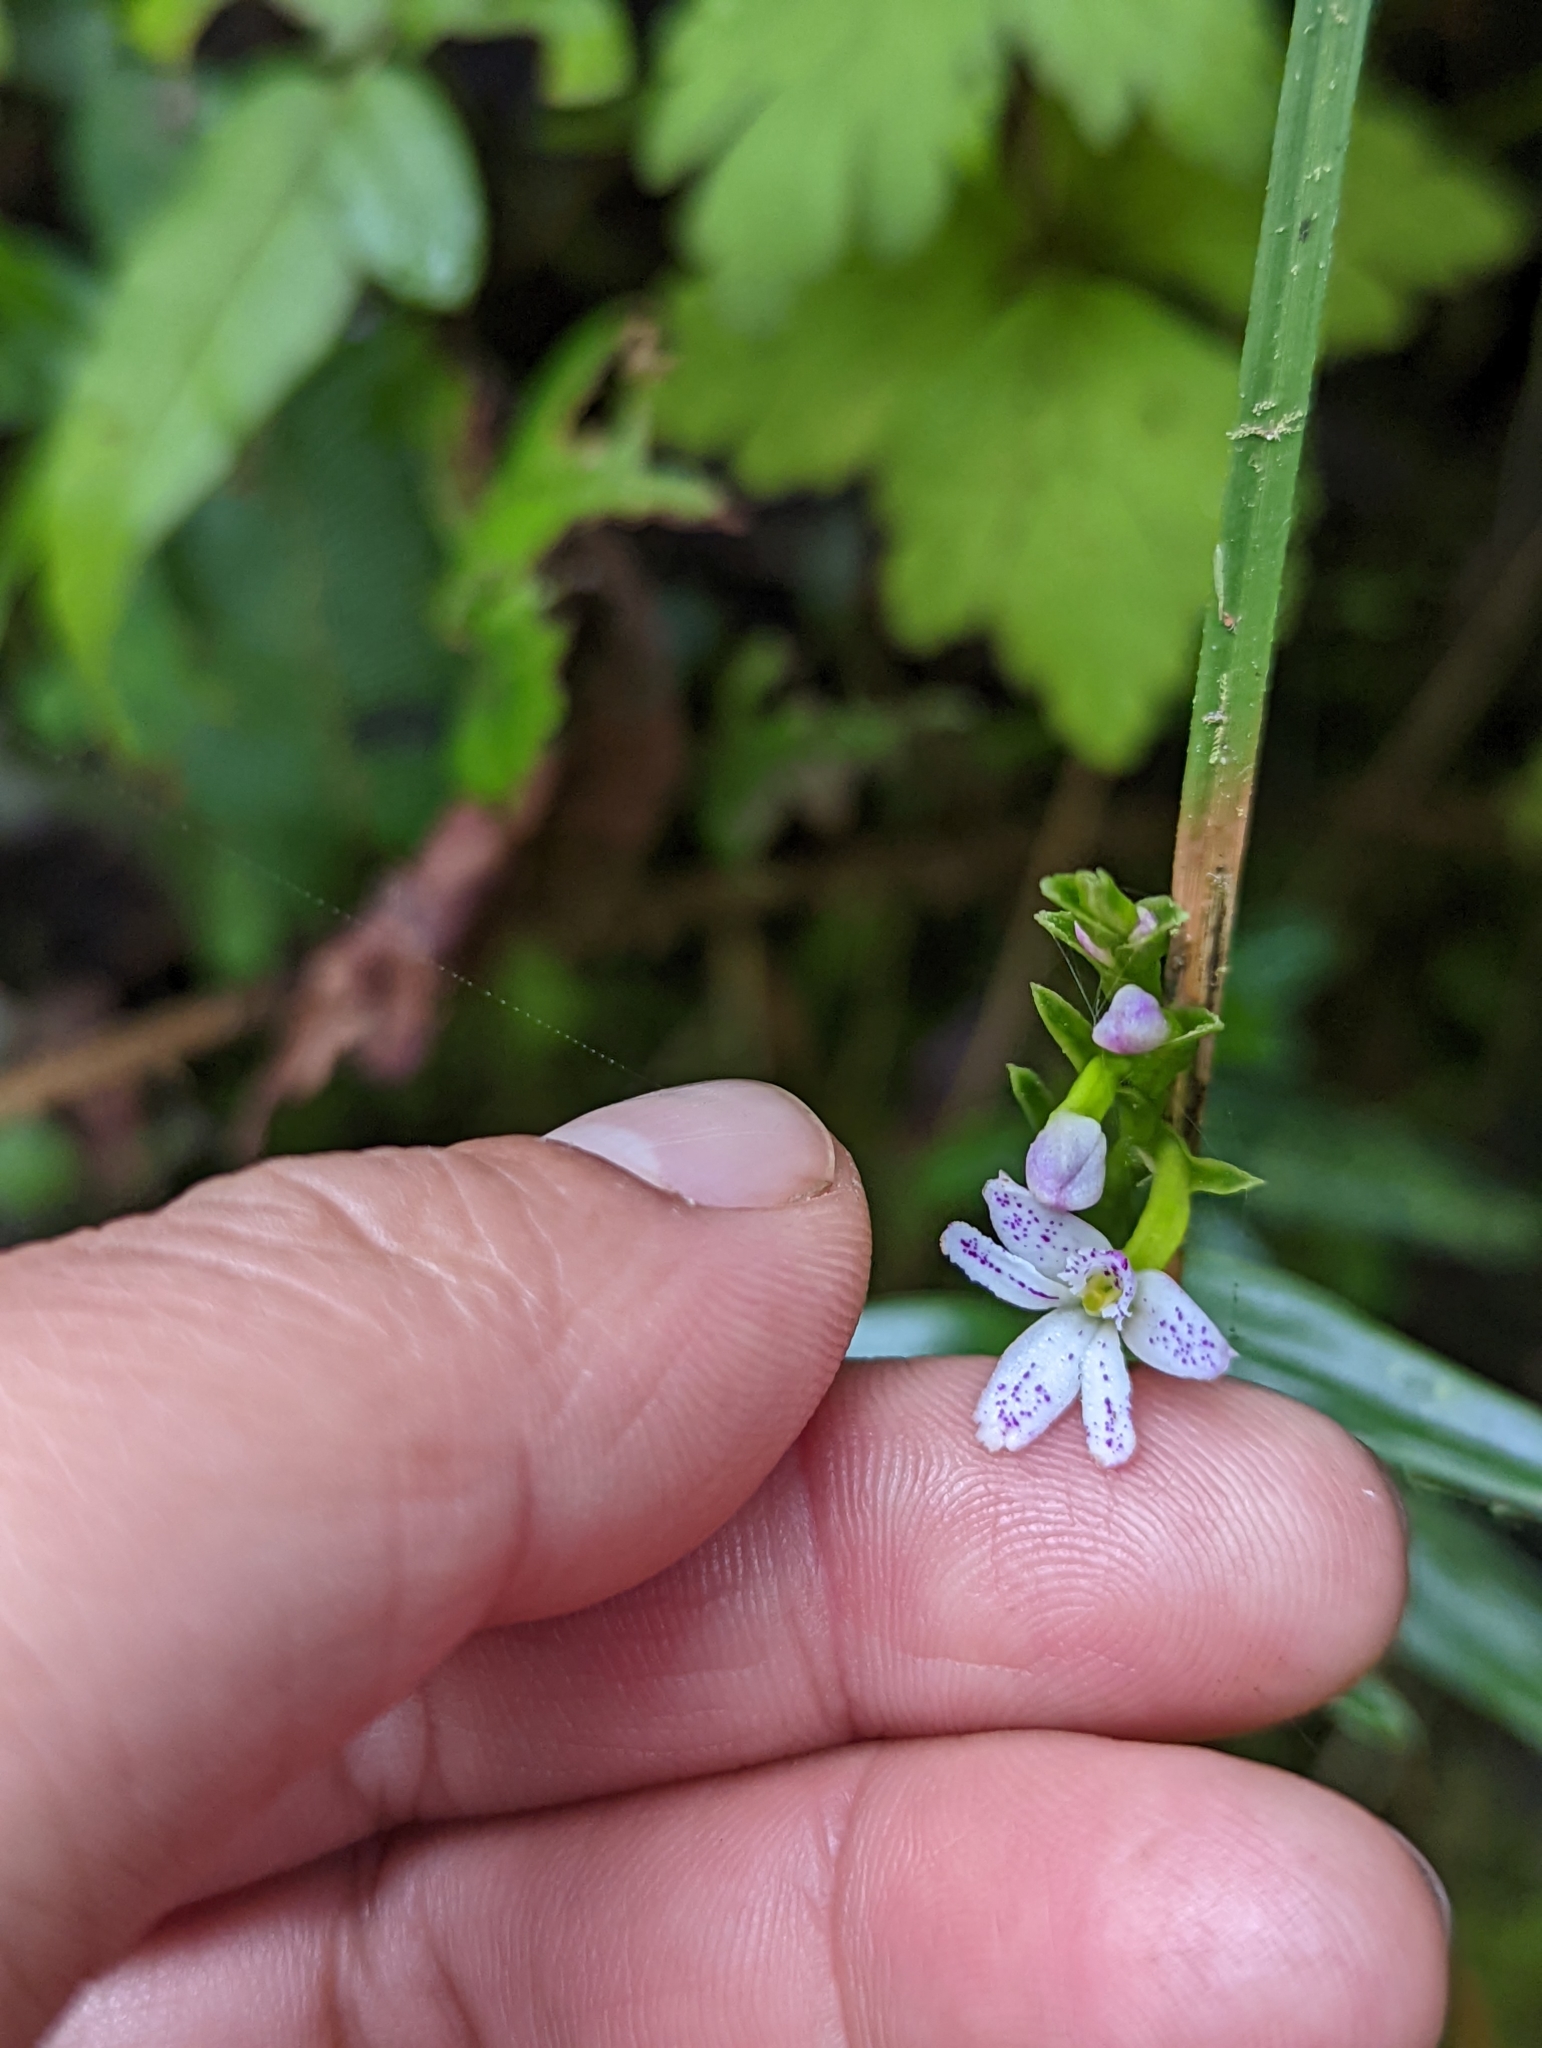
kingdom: Plantae
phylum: Tracheophyta
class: Liliopsida
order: Asparagales
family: Orchidaceae
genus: Epidendrum
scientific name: Epidendrum fimbriatum
